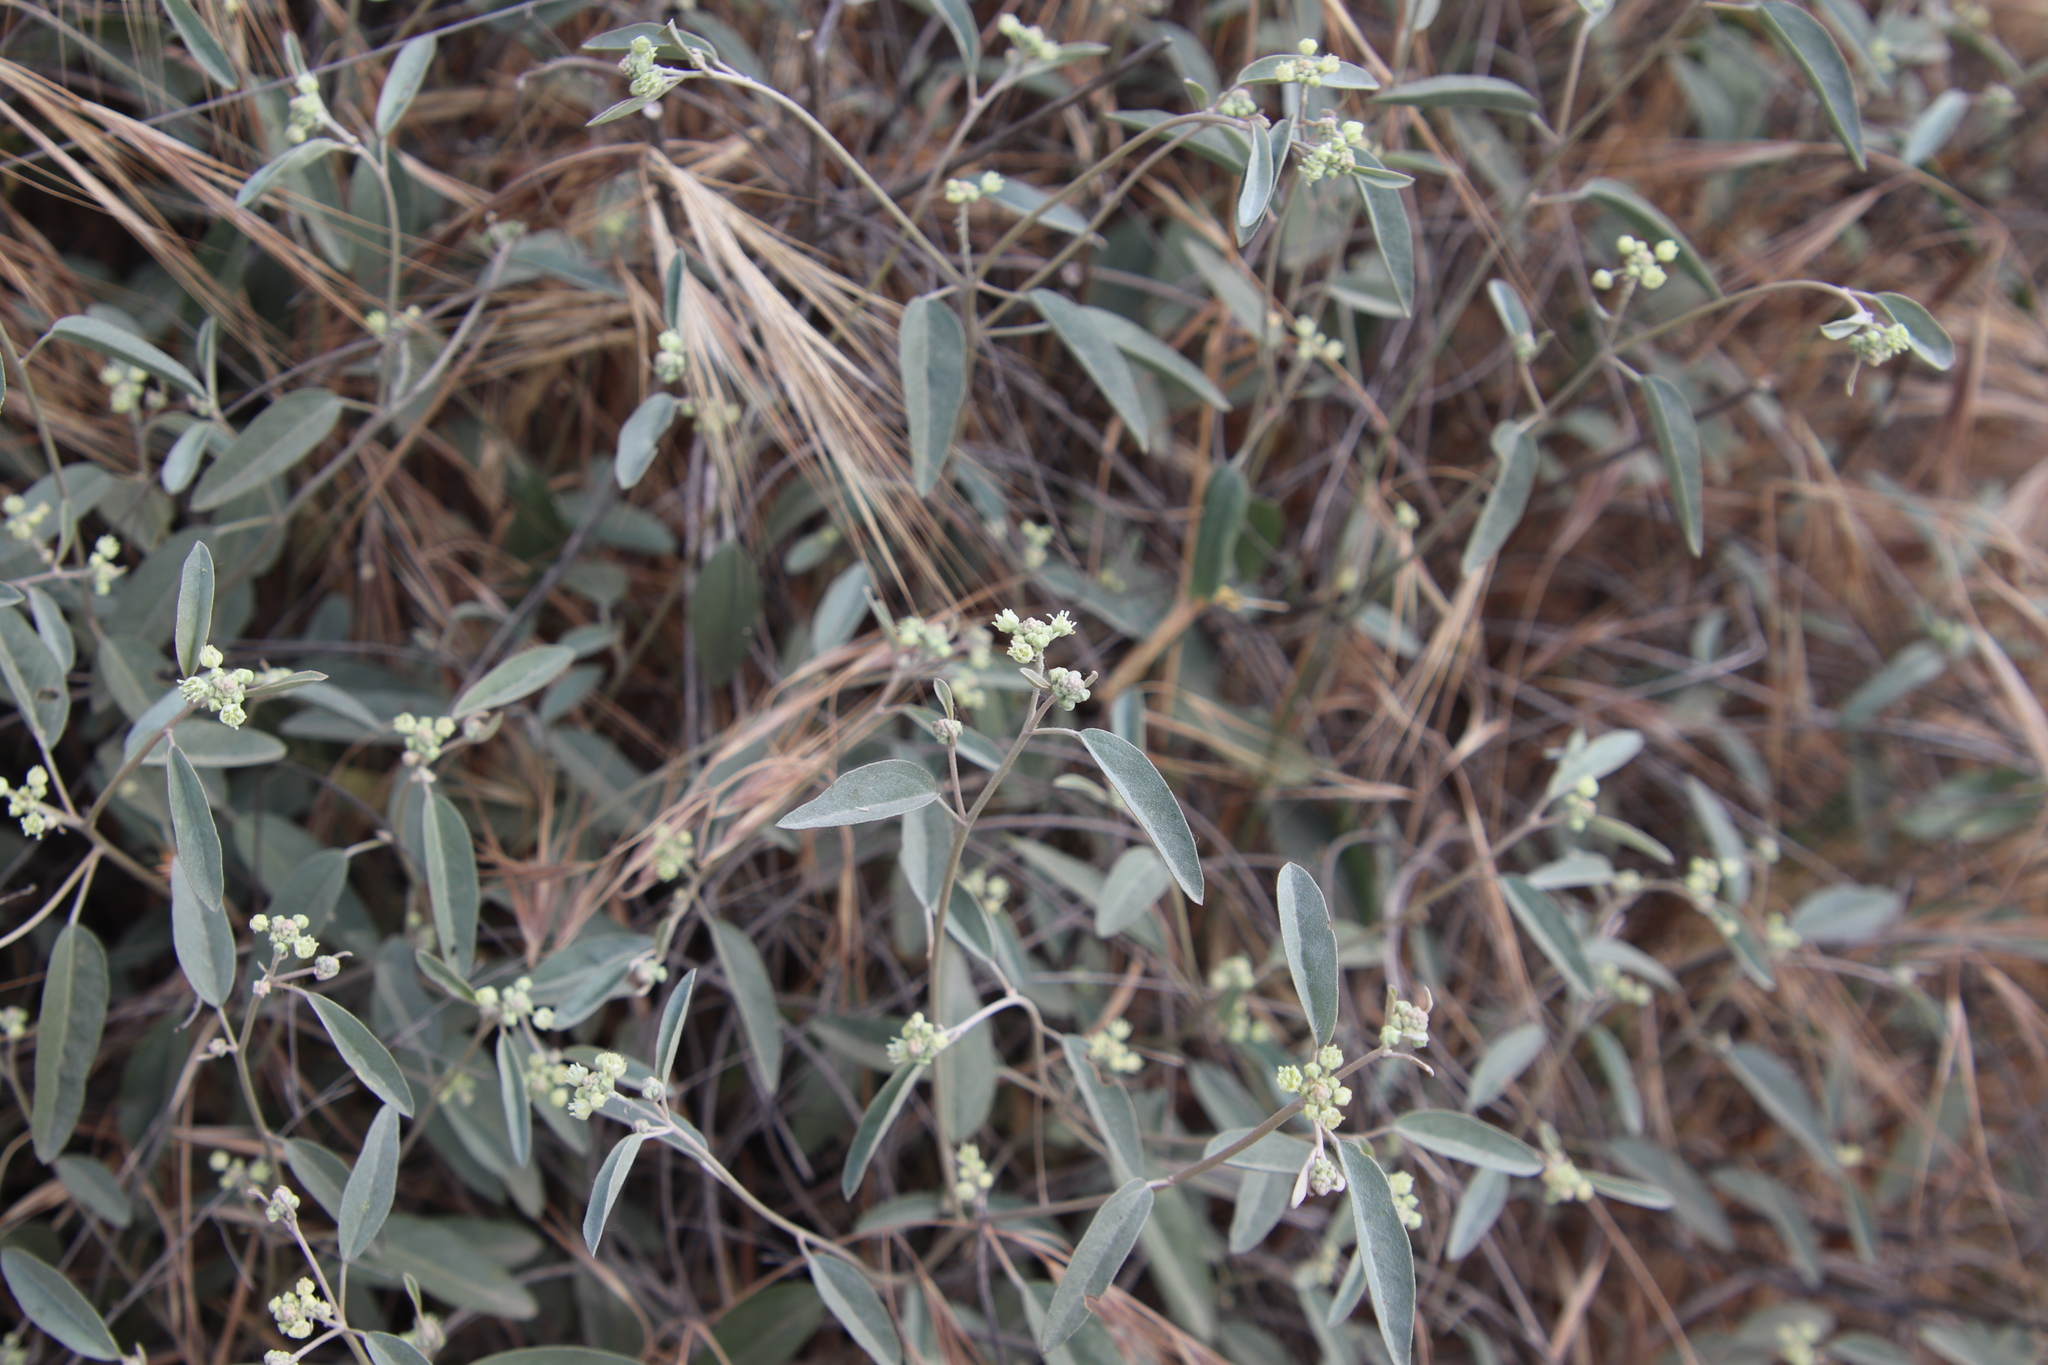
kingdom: Plantae
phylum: Tracheophyta
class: Magnoliopsida
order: Malpighiales
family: Euphorbiaceae
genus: Croton
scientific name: Croton californicus
